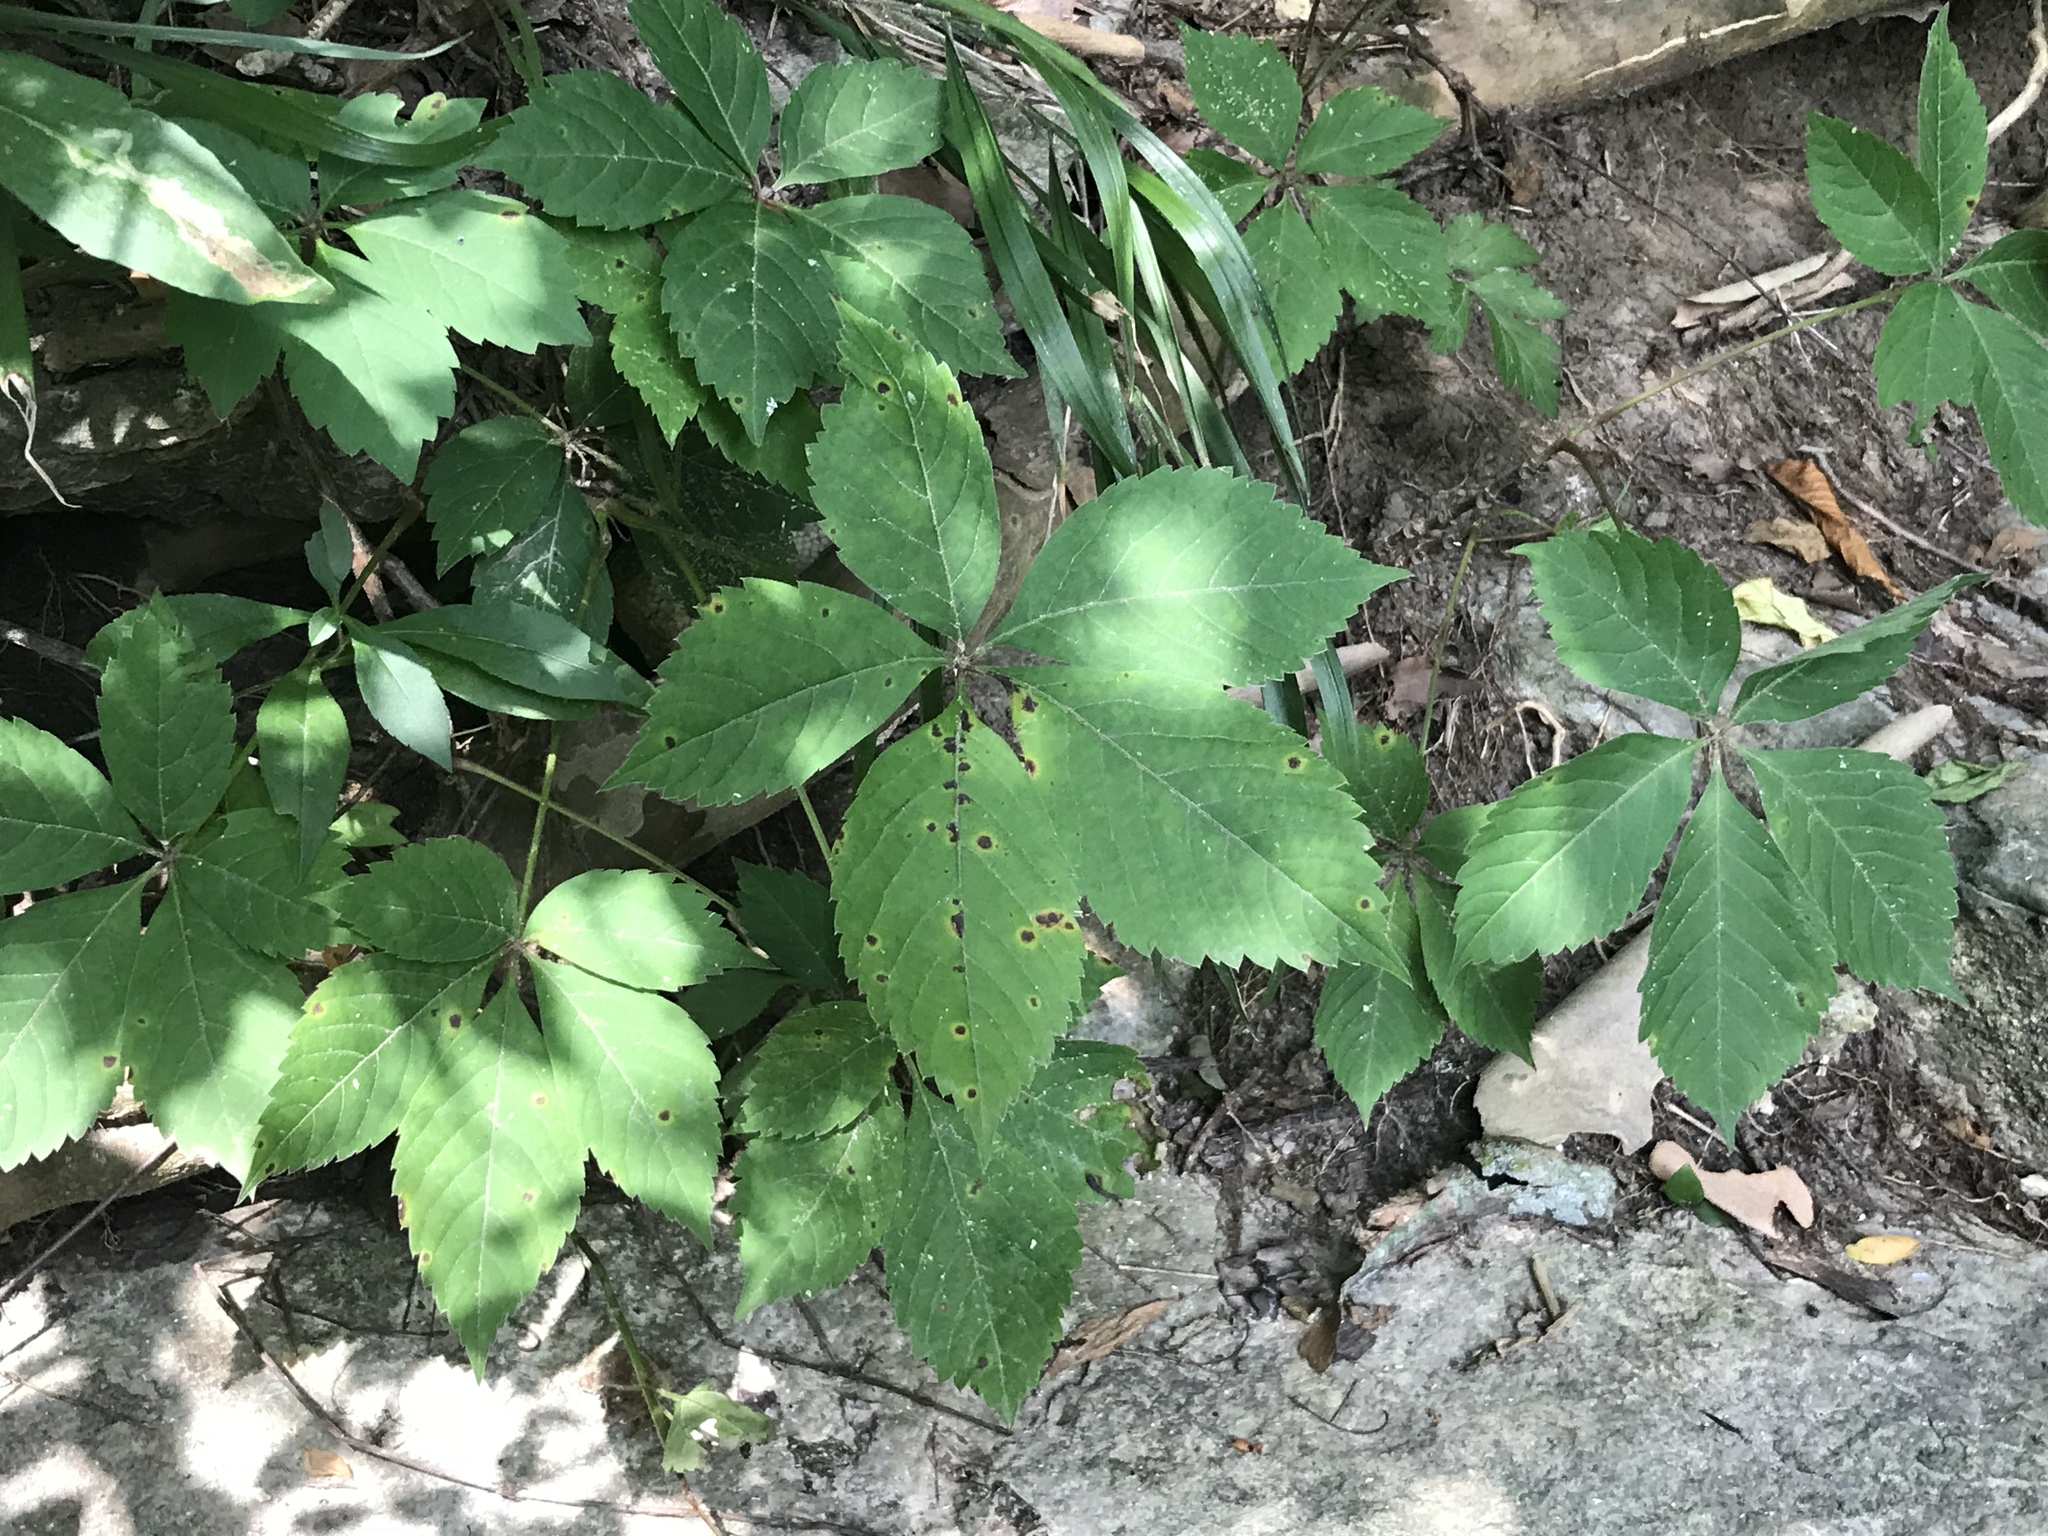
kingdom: Plantae
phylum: Tracheophyta
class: Magnoliopsida
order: Vitales
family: Vitaceae
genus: Parthenocissus
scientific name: Parthenocissus quinquefolia
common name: Virginia-creeper
